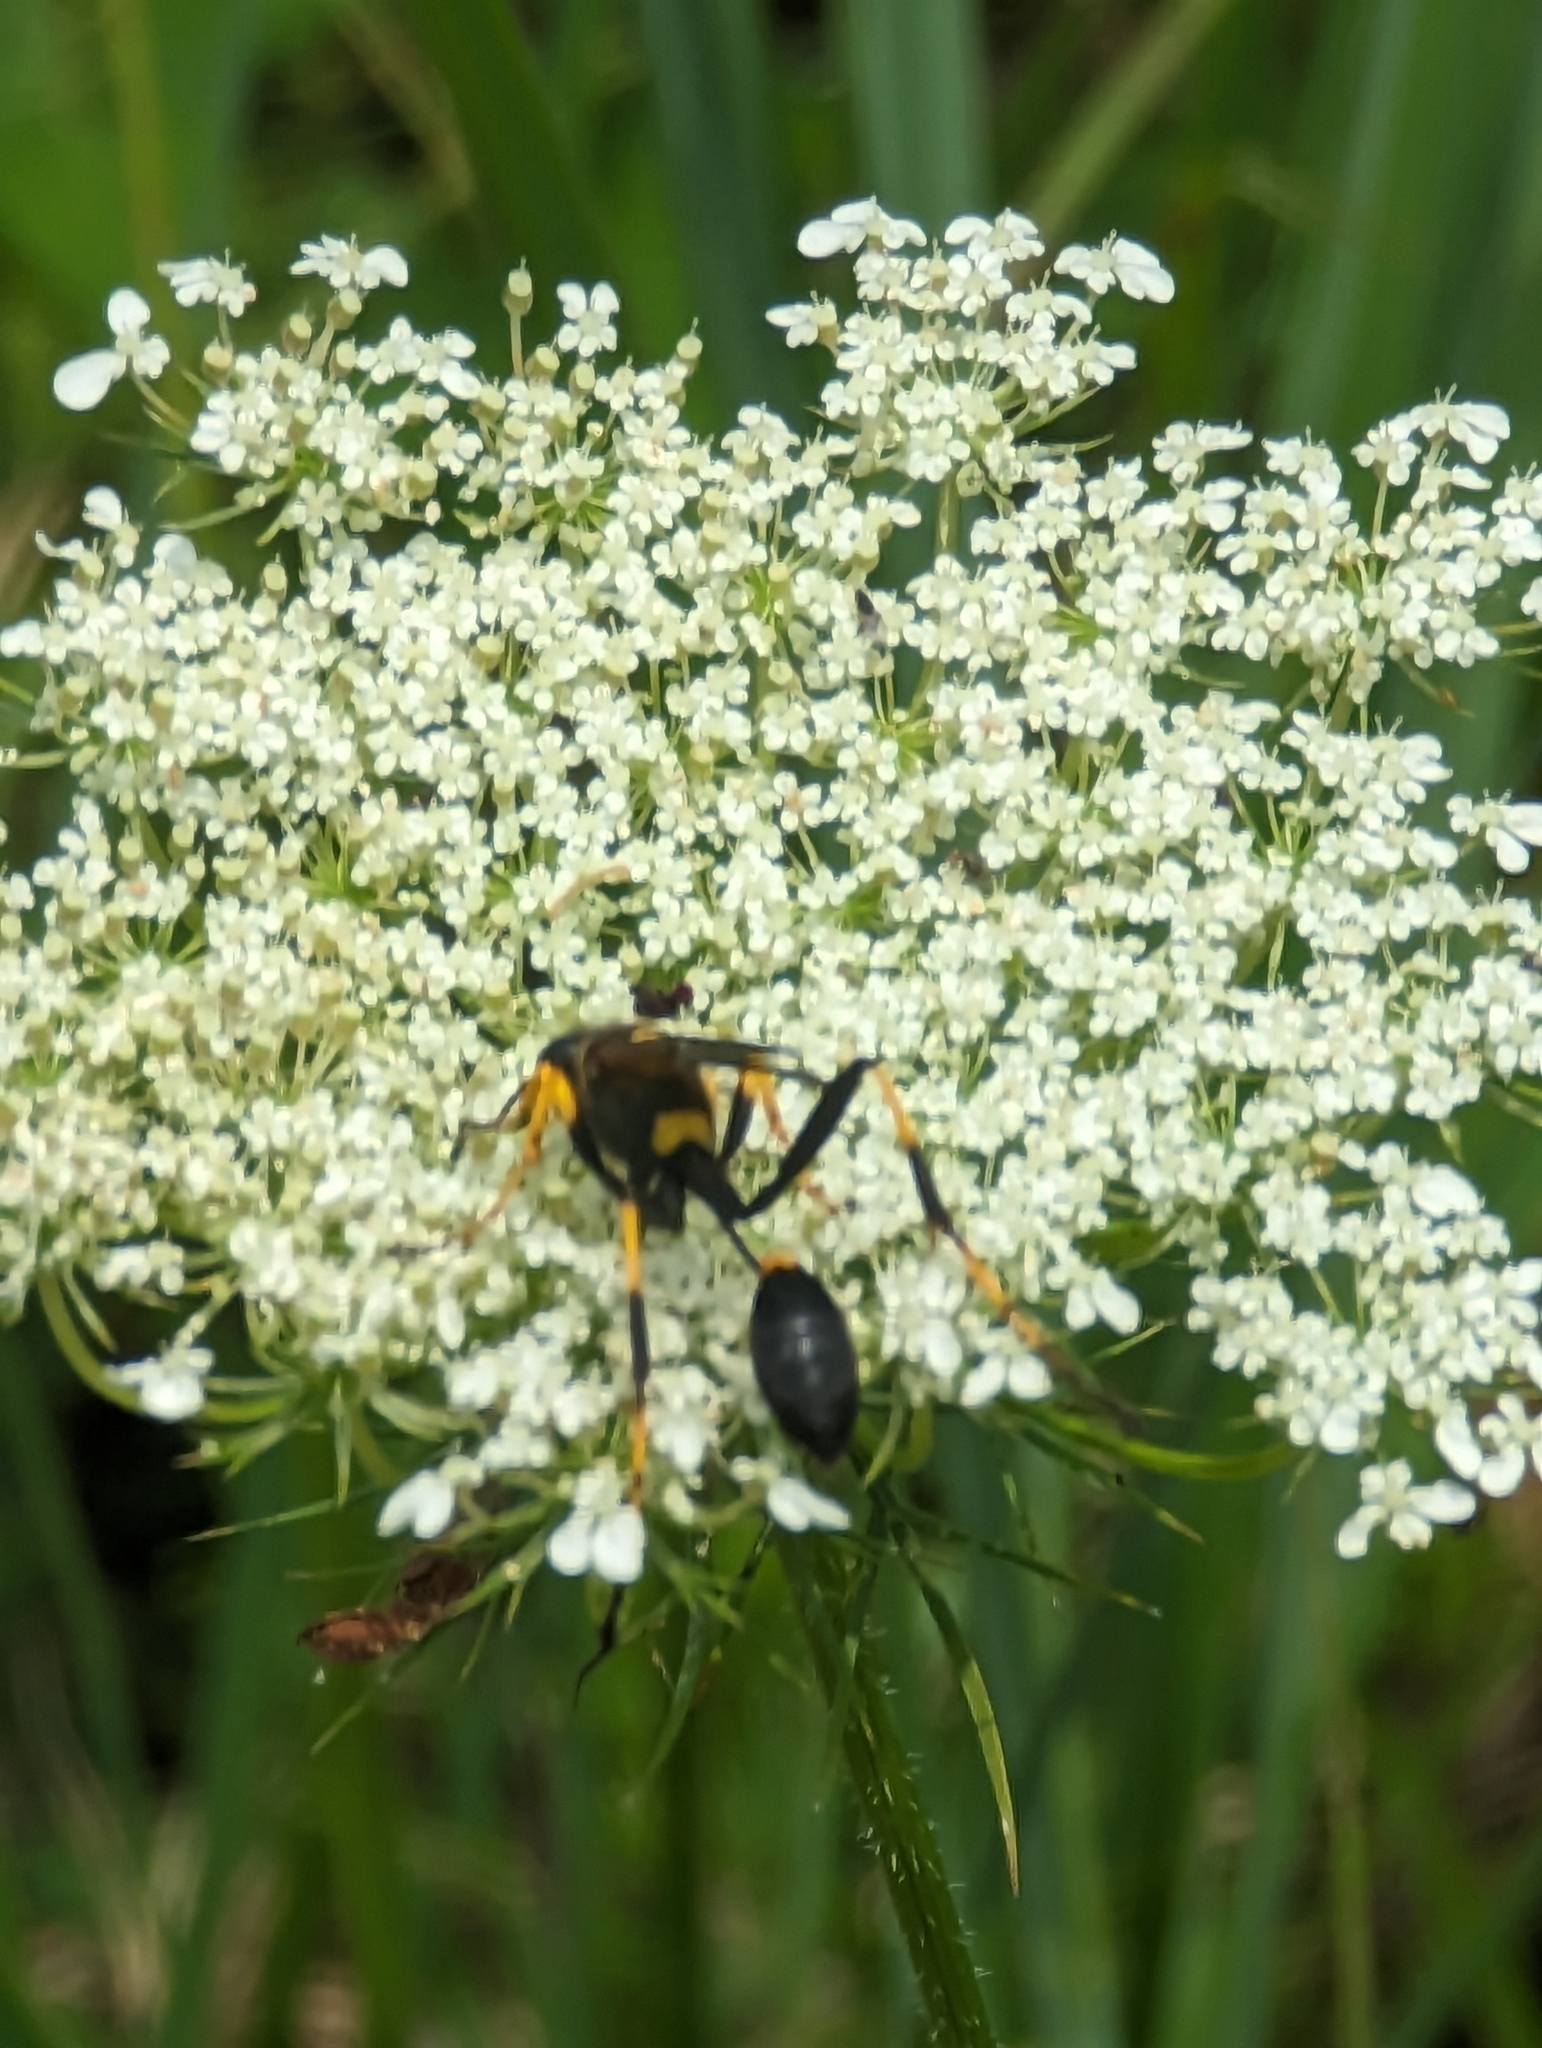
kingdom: Animalia
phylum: Arthropoda
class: Insecta
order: Hymenoptera
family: Sphecidae
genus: Sceliphron
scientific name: Sceliphron caementarium
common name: Mud dauber
